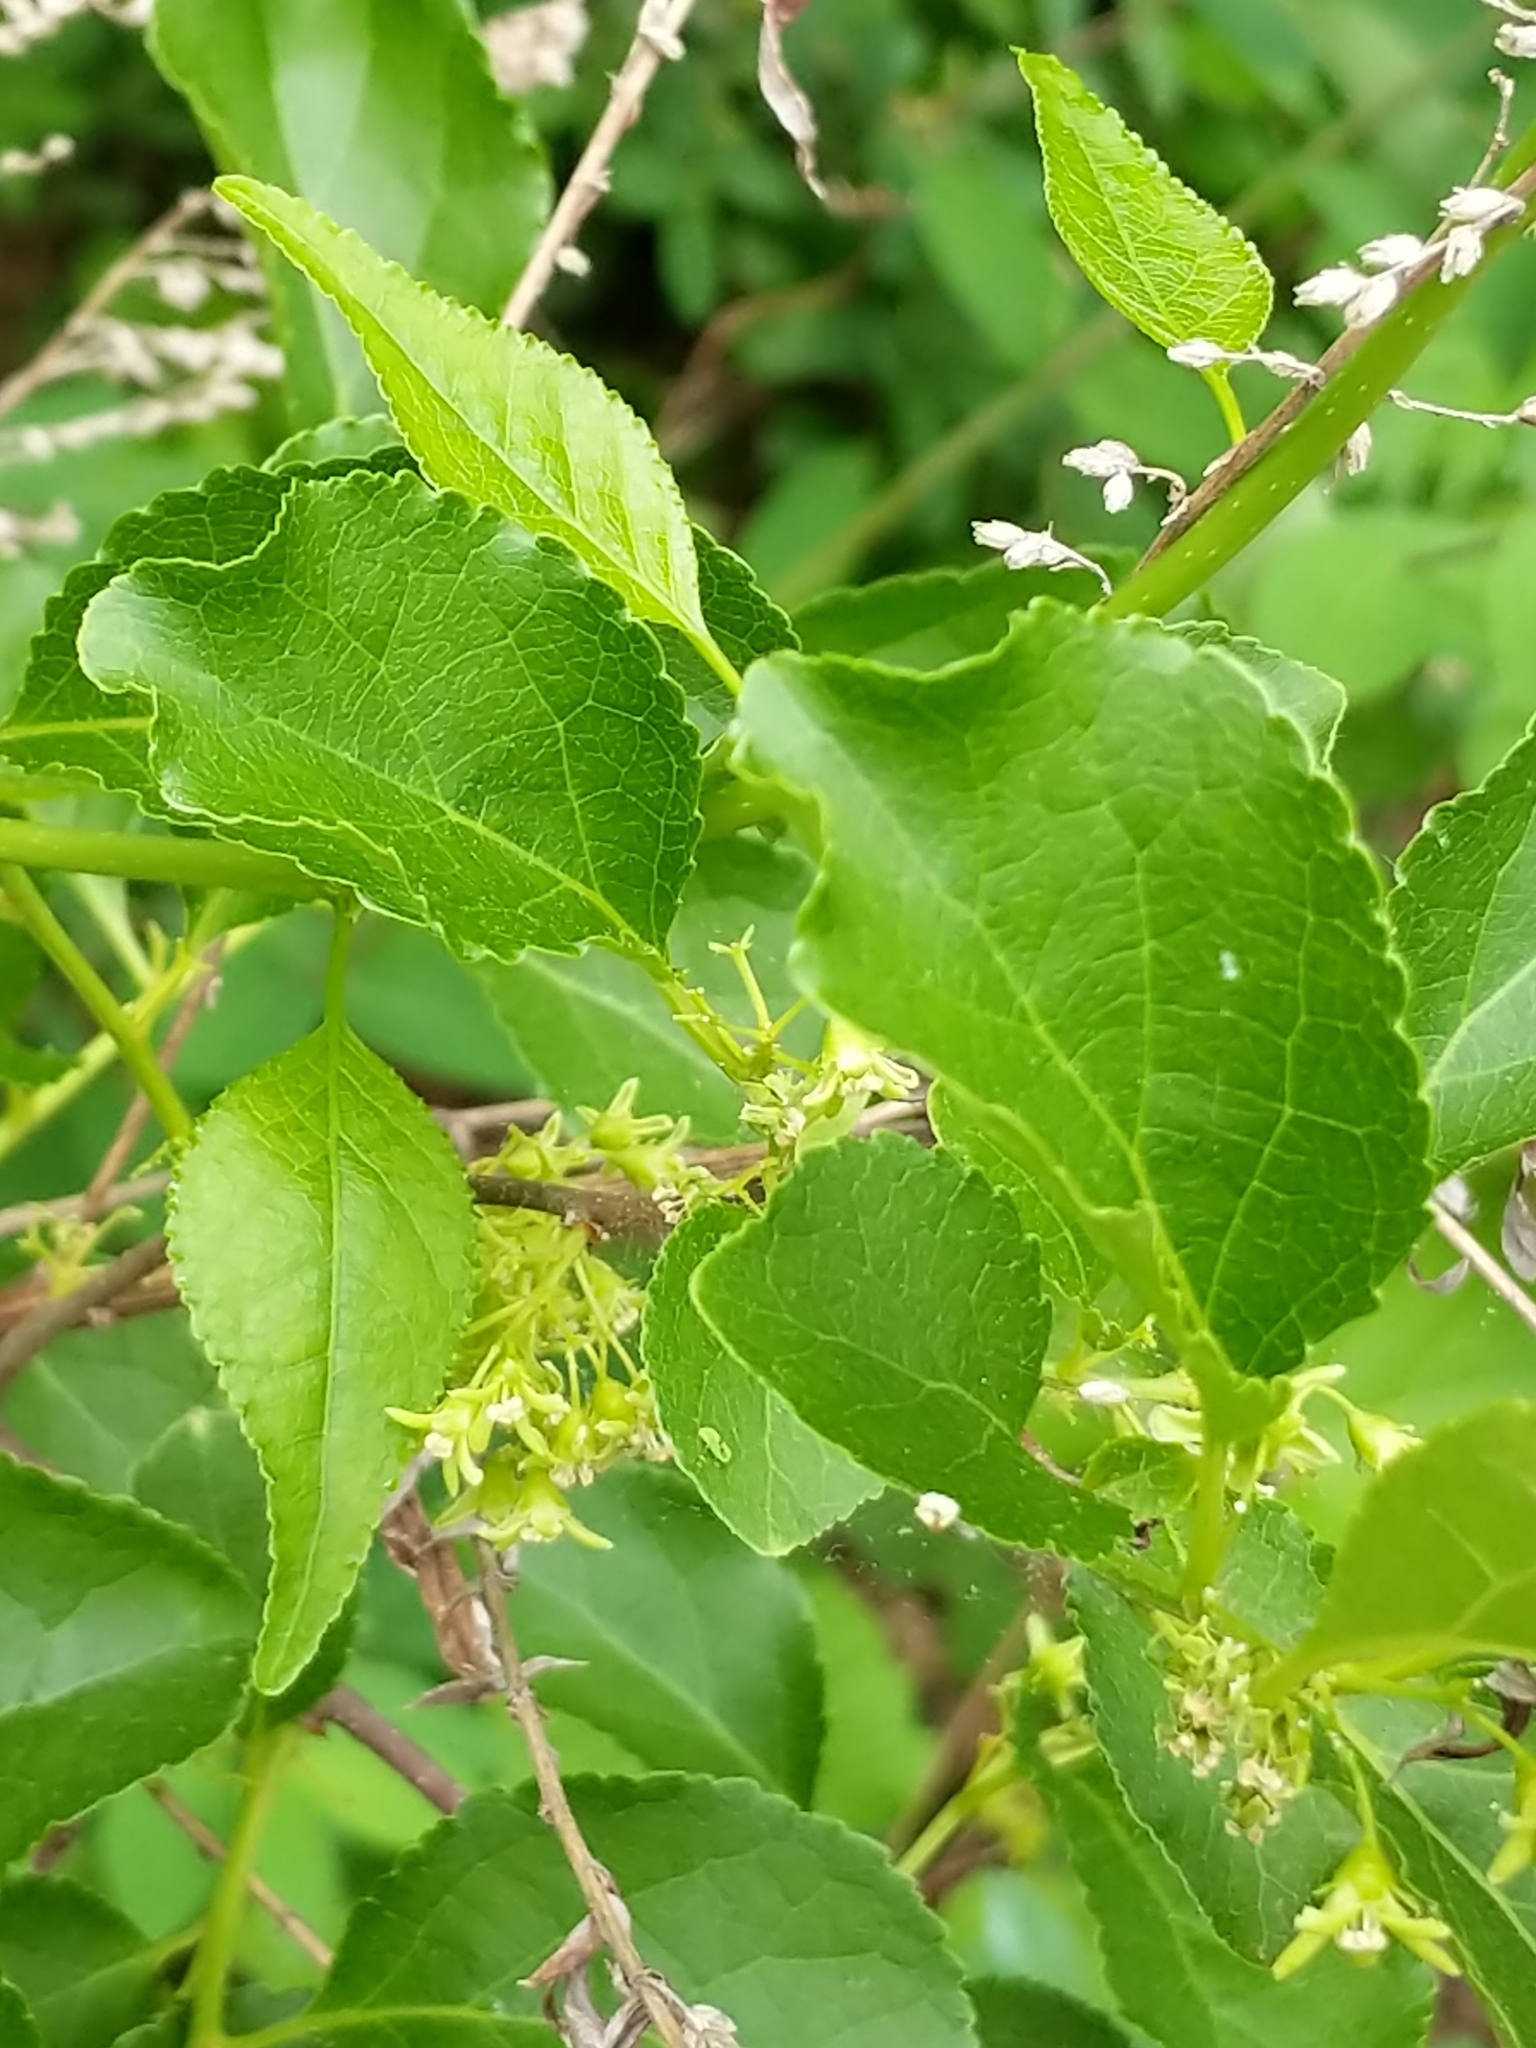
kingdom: Plantae
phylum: Tracheophyta
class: Magnoliopsida
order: Celastrales
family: Celastraceae
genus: Celastrus
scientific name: Celastrus orbiculatus
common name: Oriental bittersweet
